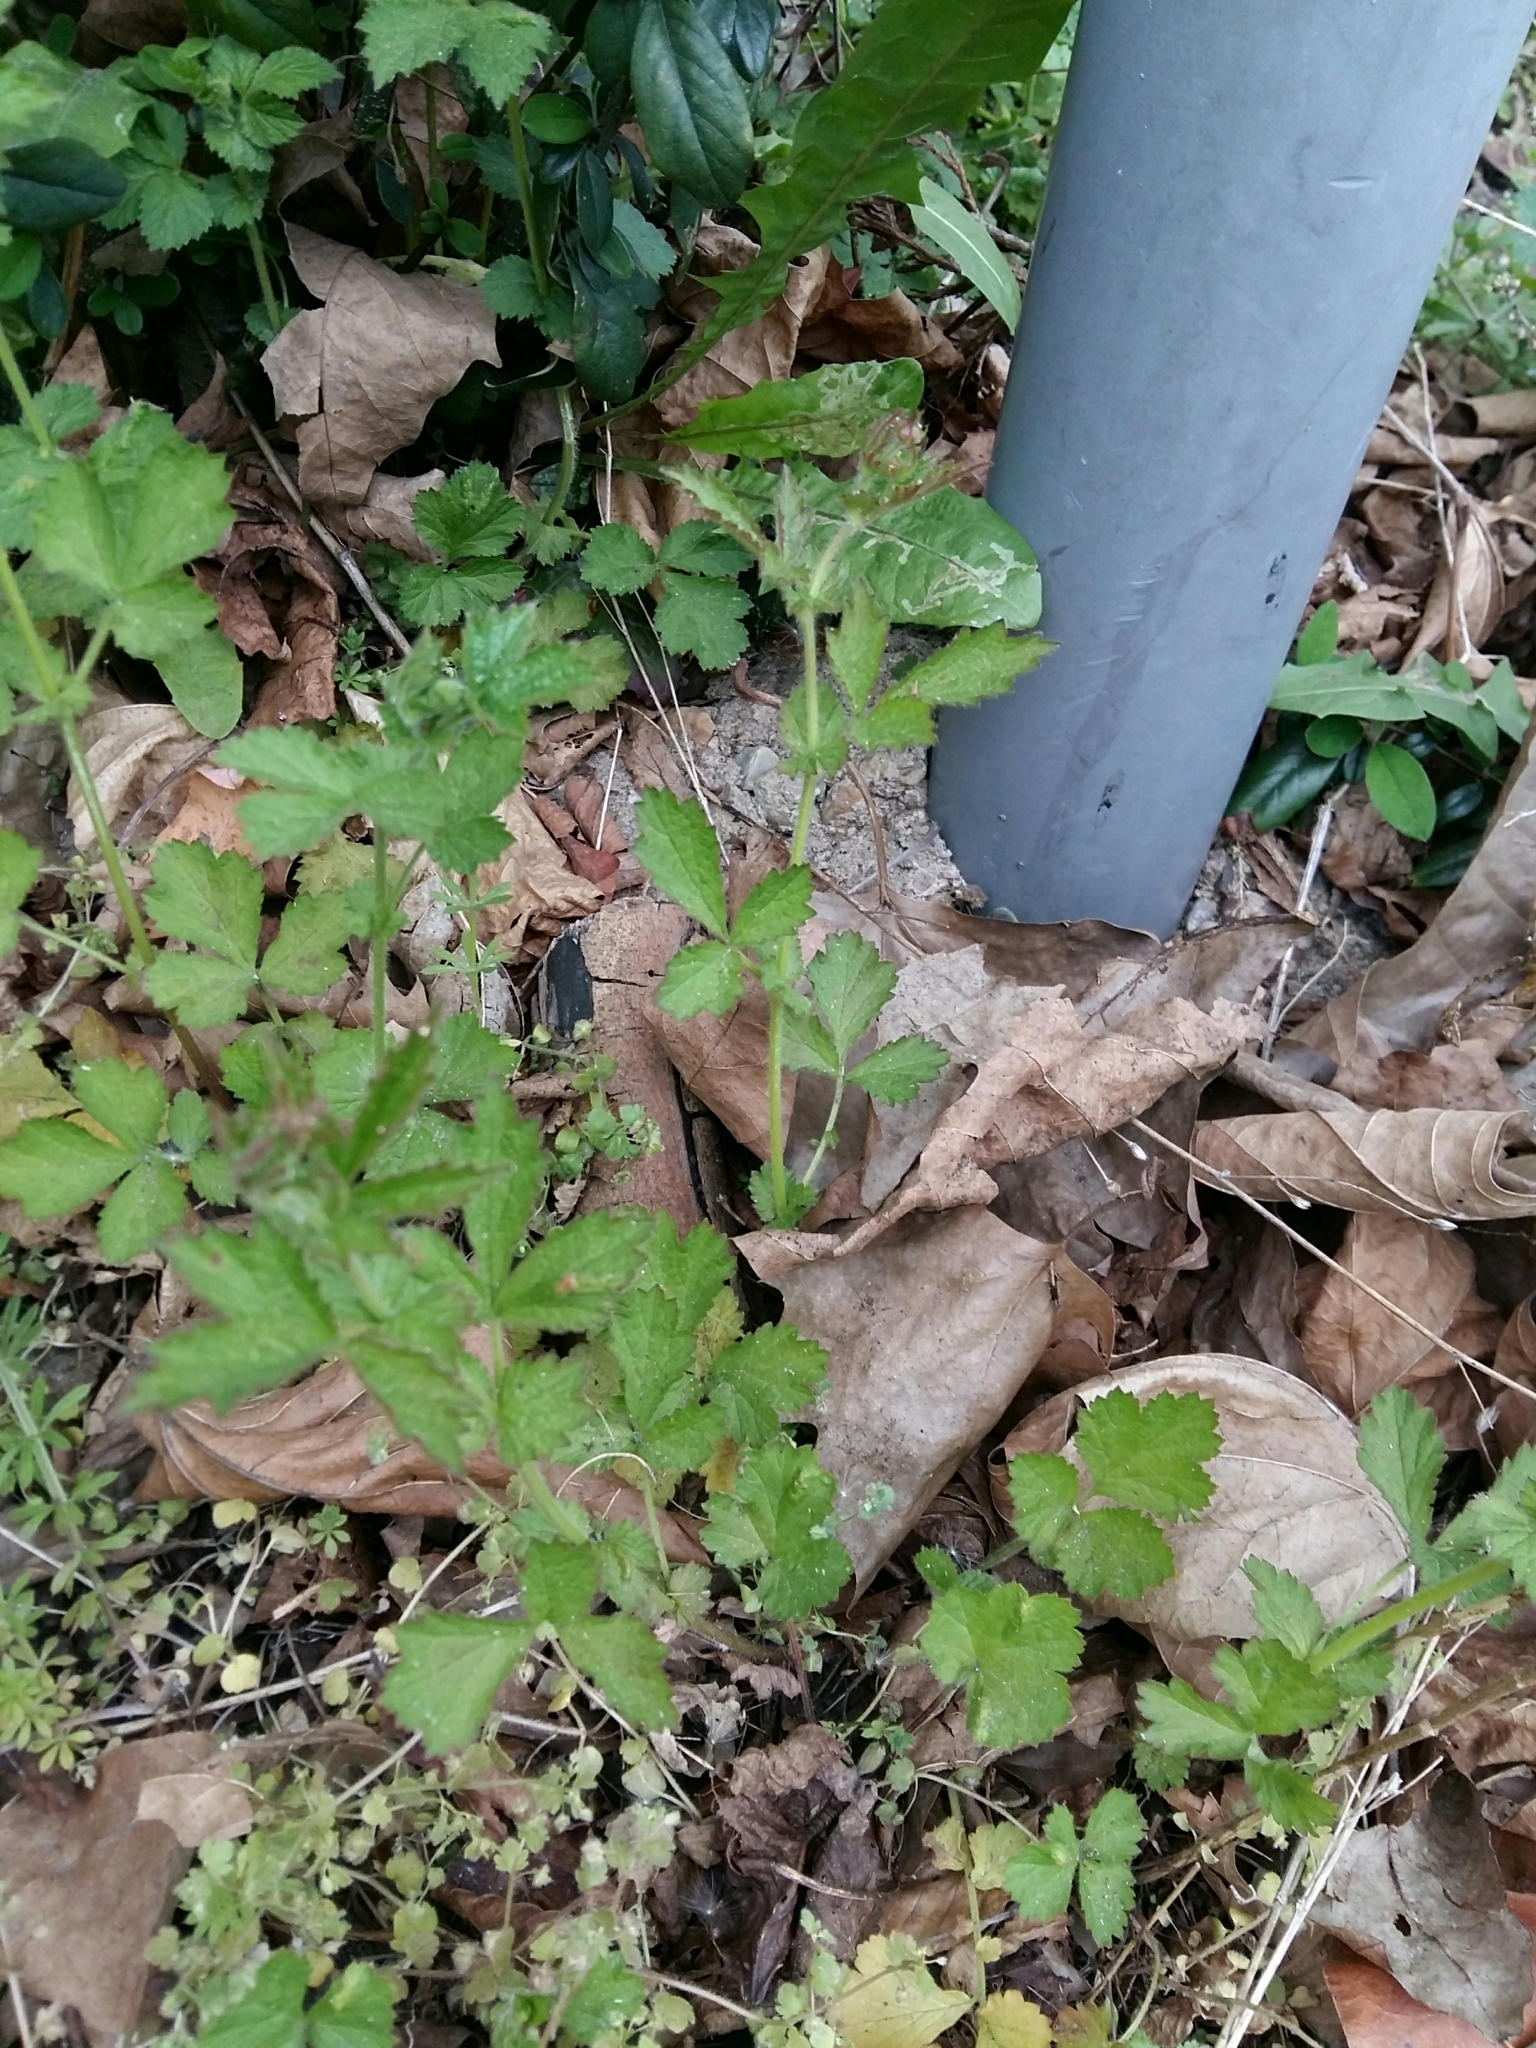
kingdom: Plantae
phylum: Tracheophyta
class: Magnoliopsida
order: Rosales
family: Rosaceae
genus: Geum
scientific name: Geum urbanum
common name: Wood avens
